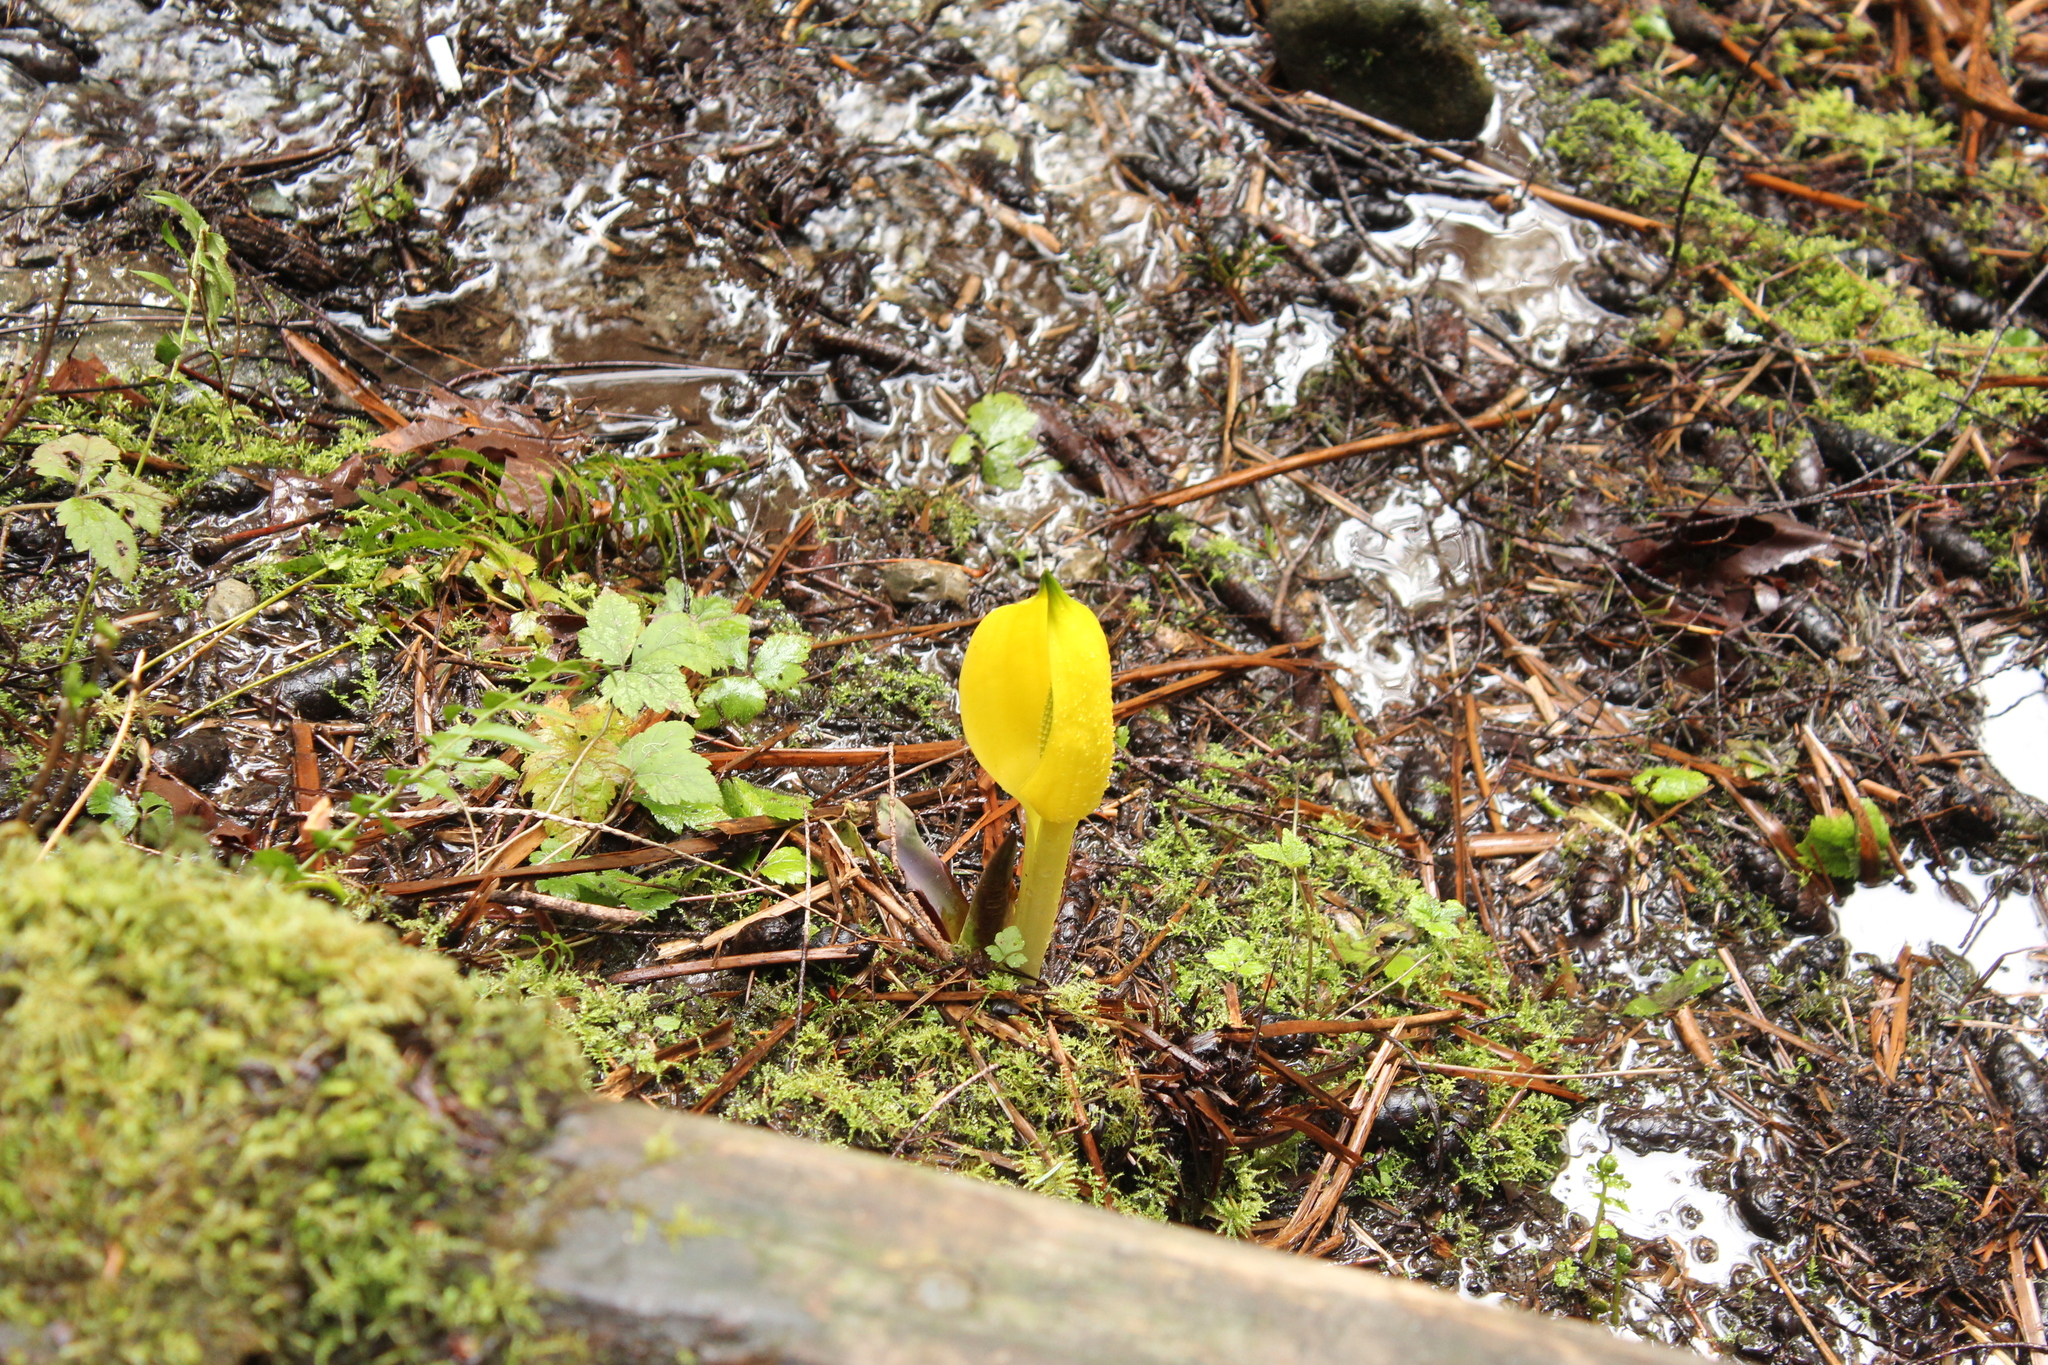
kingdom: Plantae
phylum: Tracheophyta
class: Liliopsida
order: Alismatales
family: Araceae
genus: Lysichiton
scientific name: Lysichiton americanus
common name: American skunk cabbage
